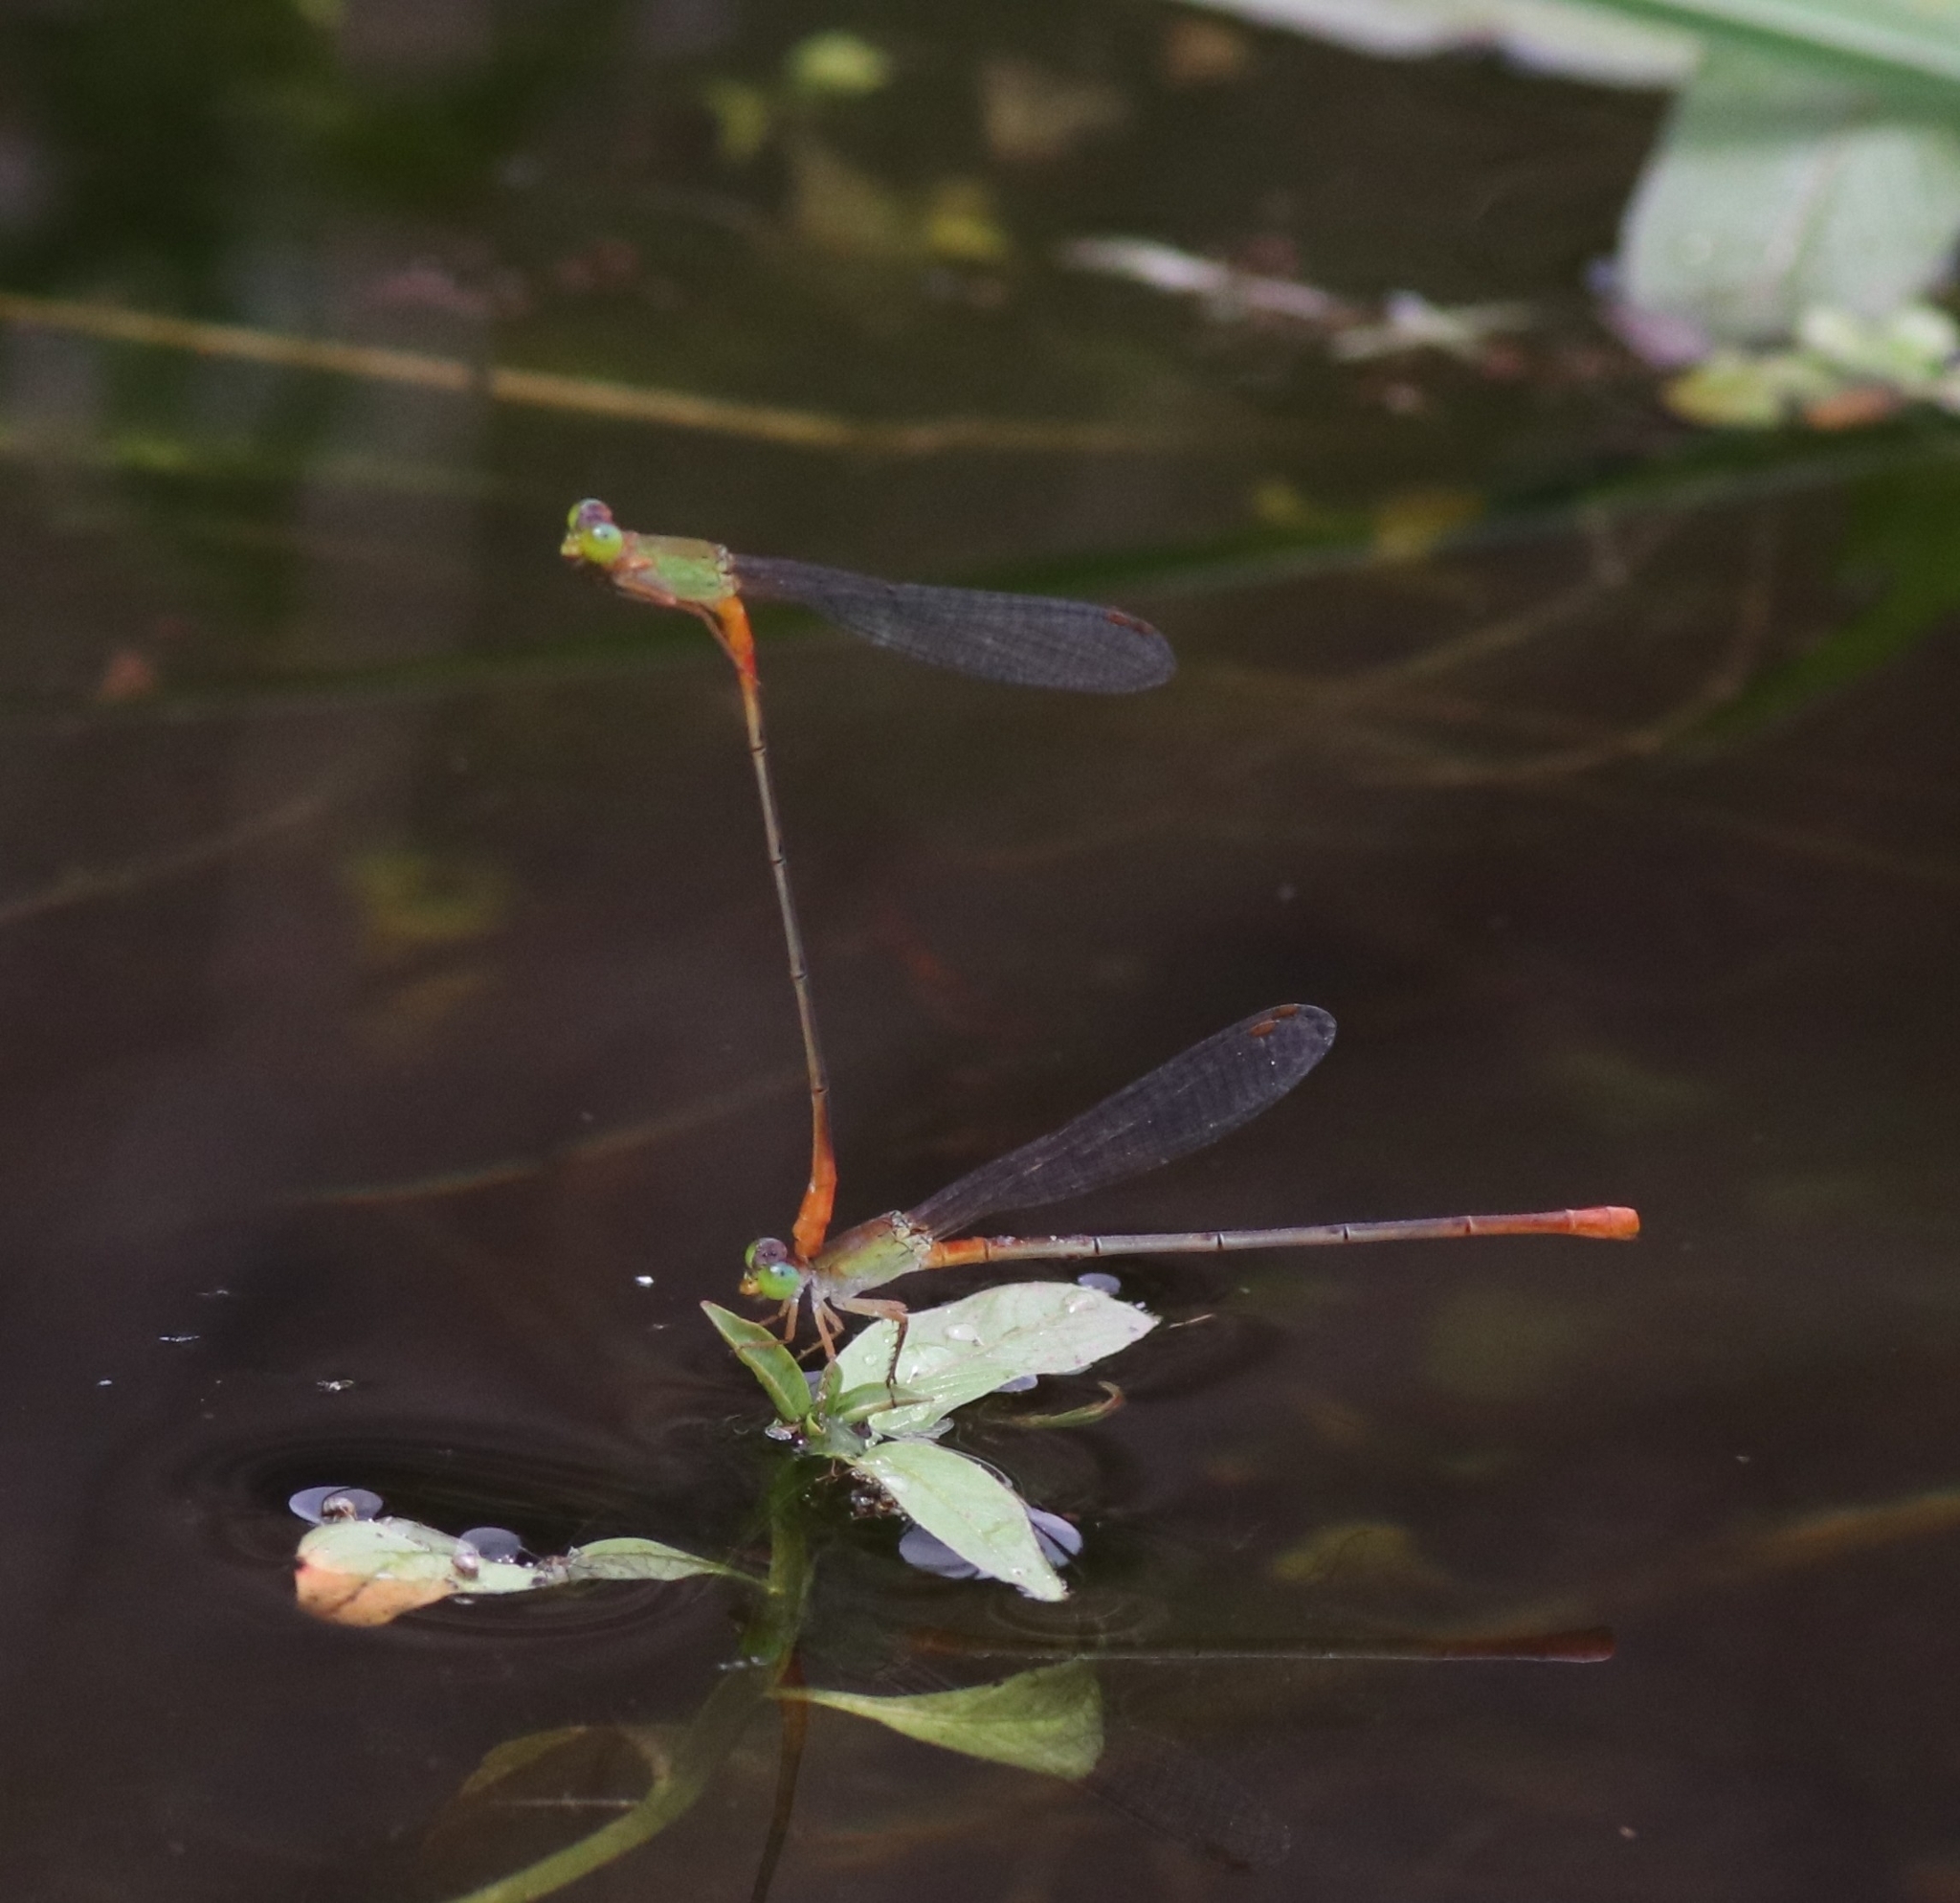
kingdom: Animalia
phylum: Arthropoda
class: Insecta
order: Odonata
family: Coenagrionidae
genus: Ceriagrion
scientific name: Ceriagrion cerinorubellum
